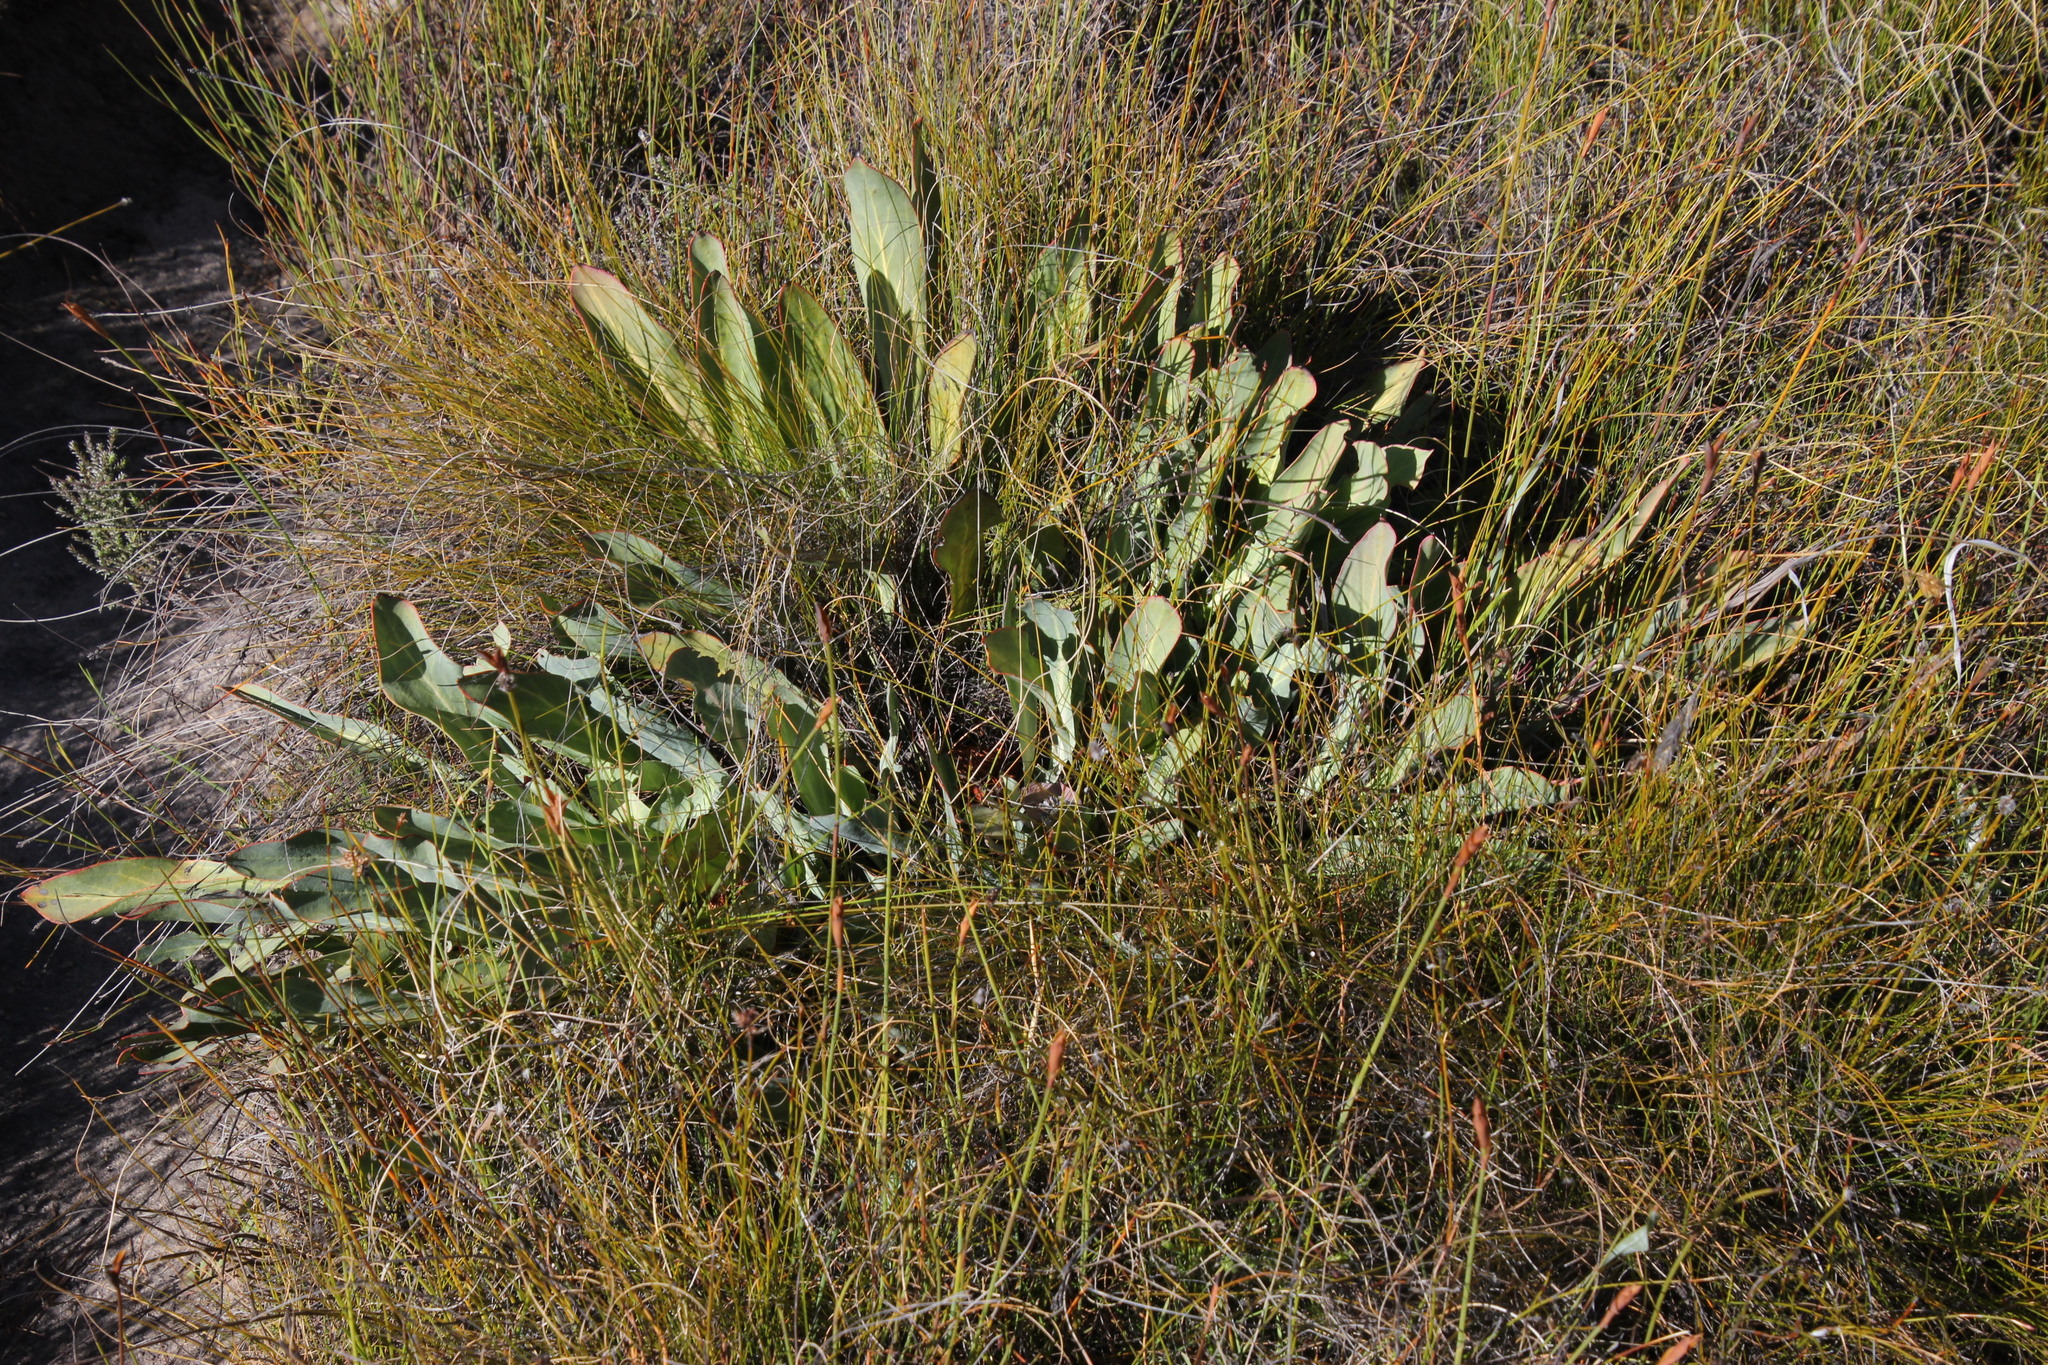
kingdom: Plantae
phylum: Tracheophyta
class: Magnoliopsida
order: Proteales
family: Proteaceae
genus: Protea
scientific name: Protea laevis
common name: Smooth-leaf sugarbush
